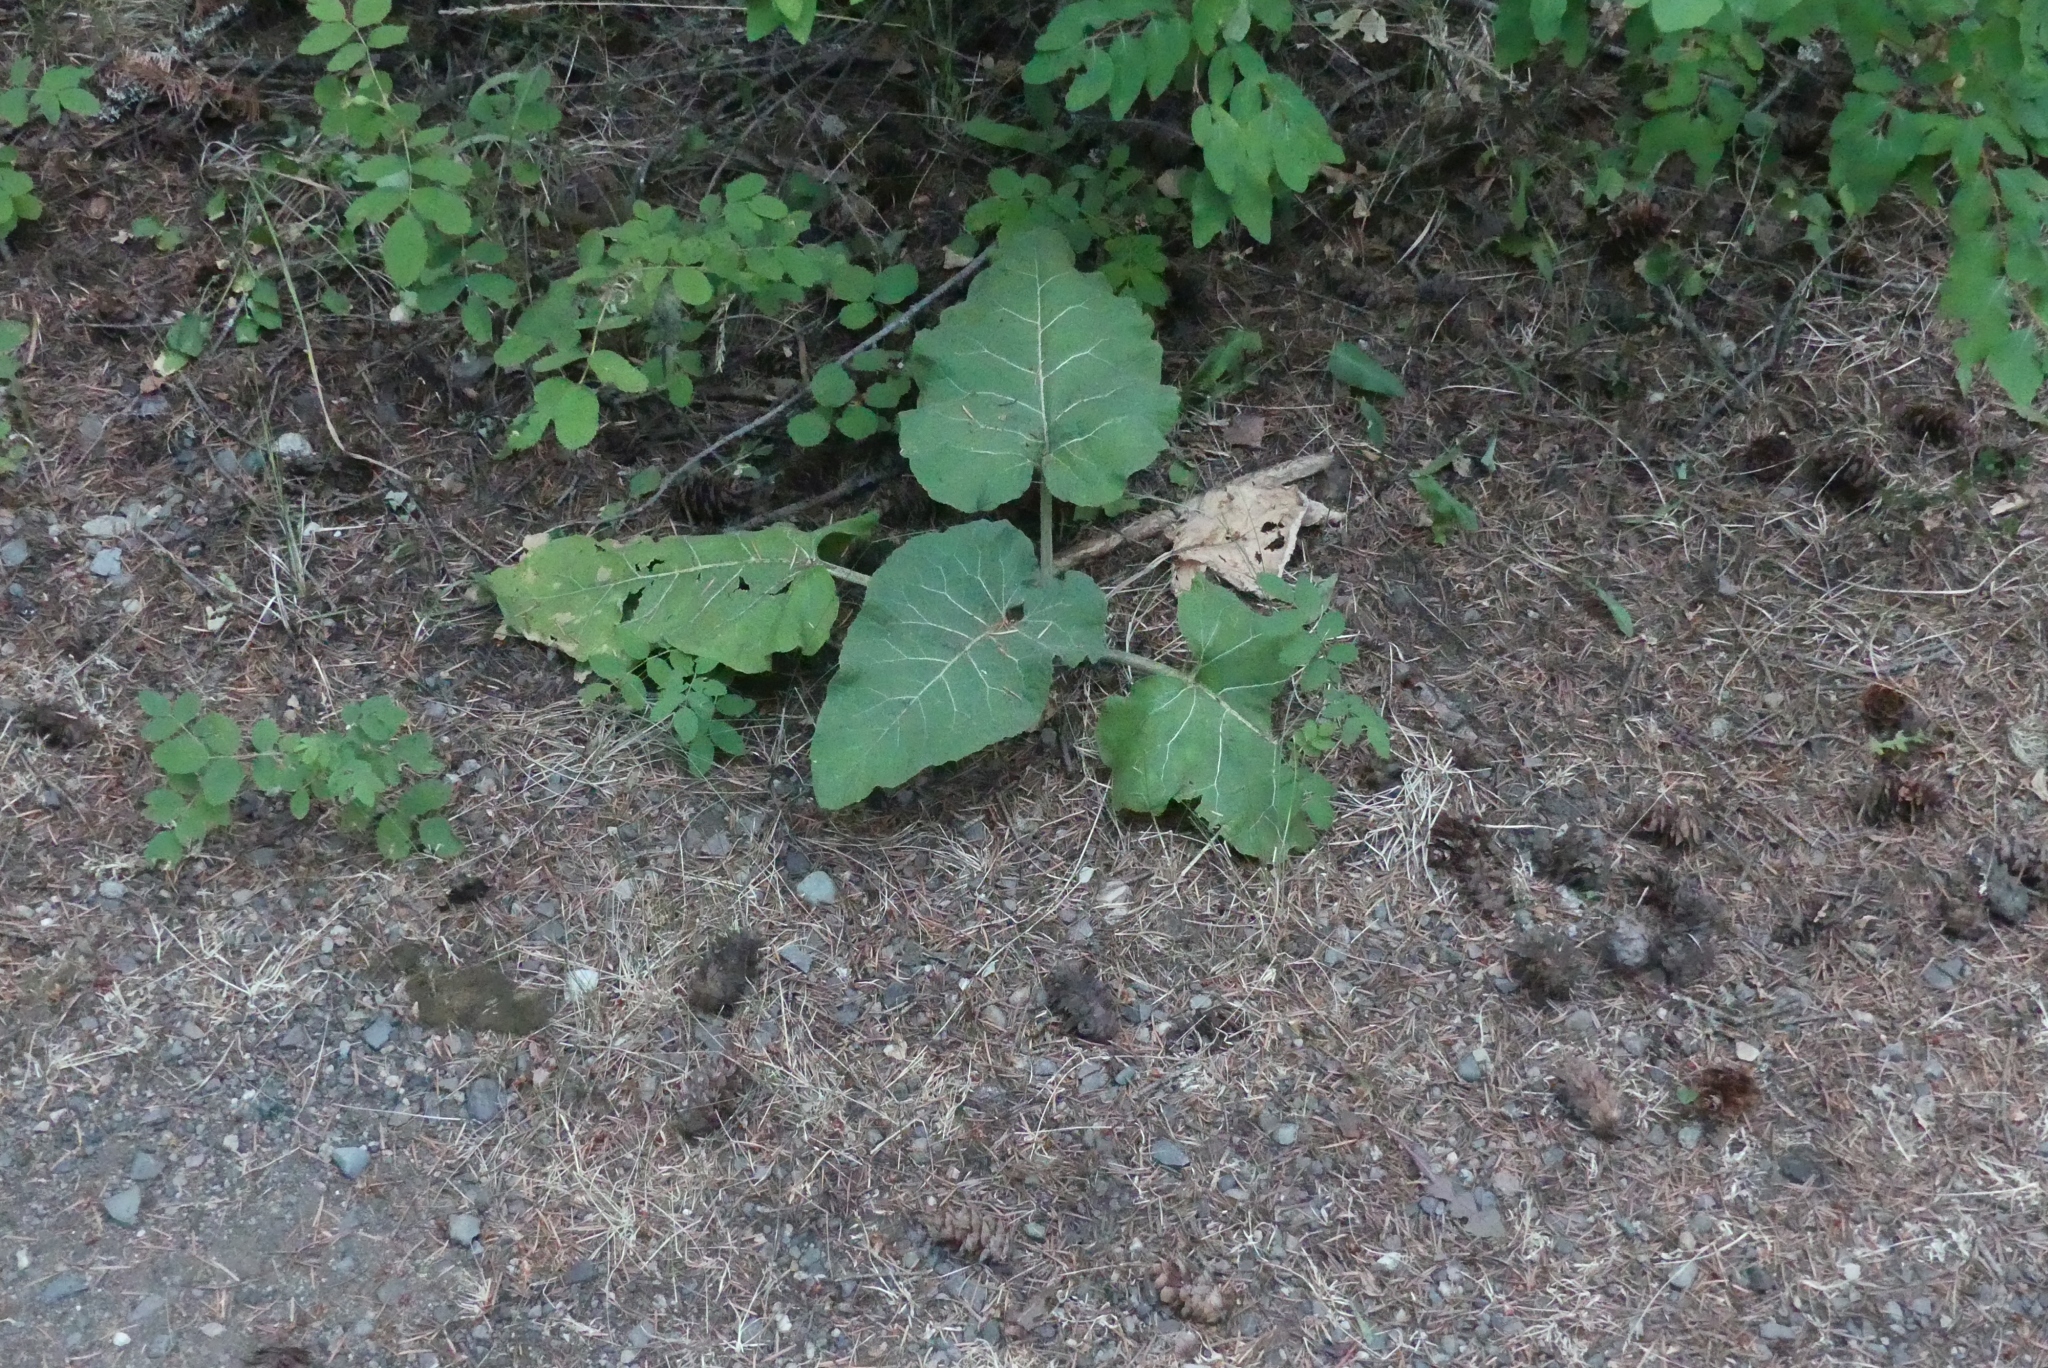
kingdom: Plantae
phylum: Tracheophyta
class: Magnoliopsida
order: Asterales
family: Asteraceae
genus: Arctium
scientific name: Arctium
